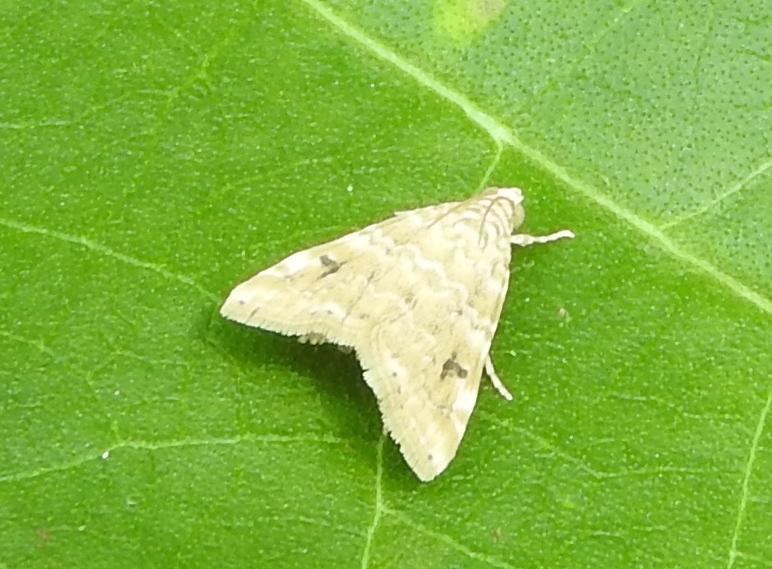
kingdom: Animalia
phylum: Arthropoda
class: Insecta
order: Lepidoptera
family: Crambidae
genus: Hellula
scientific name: Hellula
